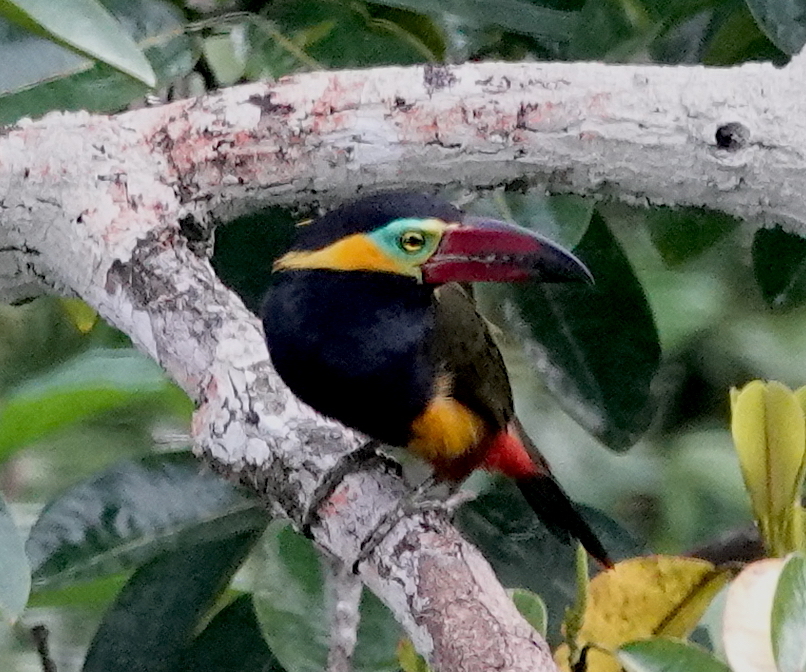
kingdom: Animalia
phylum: Chordata
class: Aves
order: Piciformes
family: Ramphastidae
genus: Selenidera
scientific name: Selenidera reinwardtii
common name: Golden-collared toucanet
